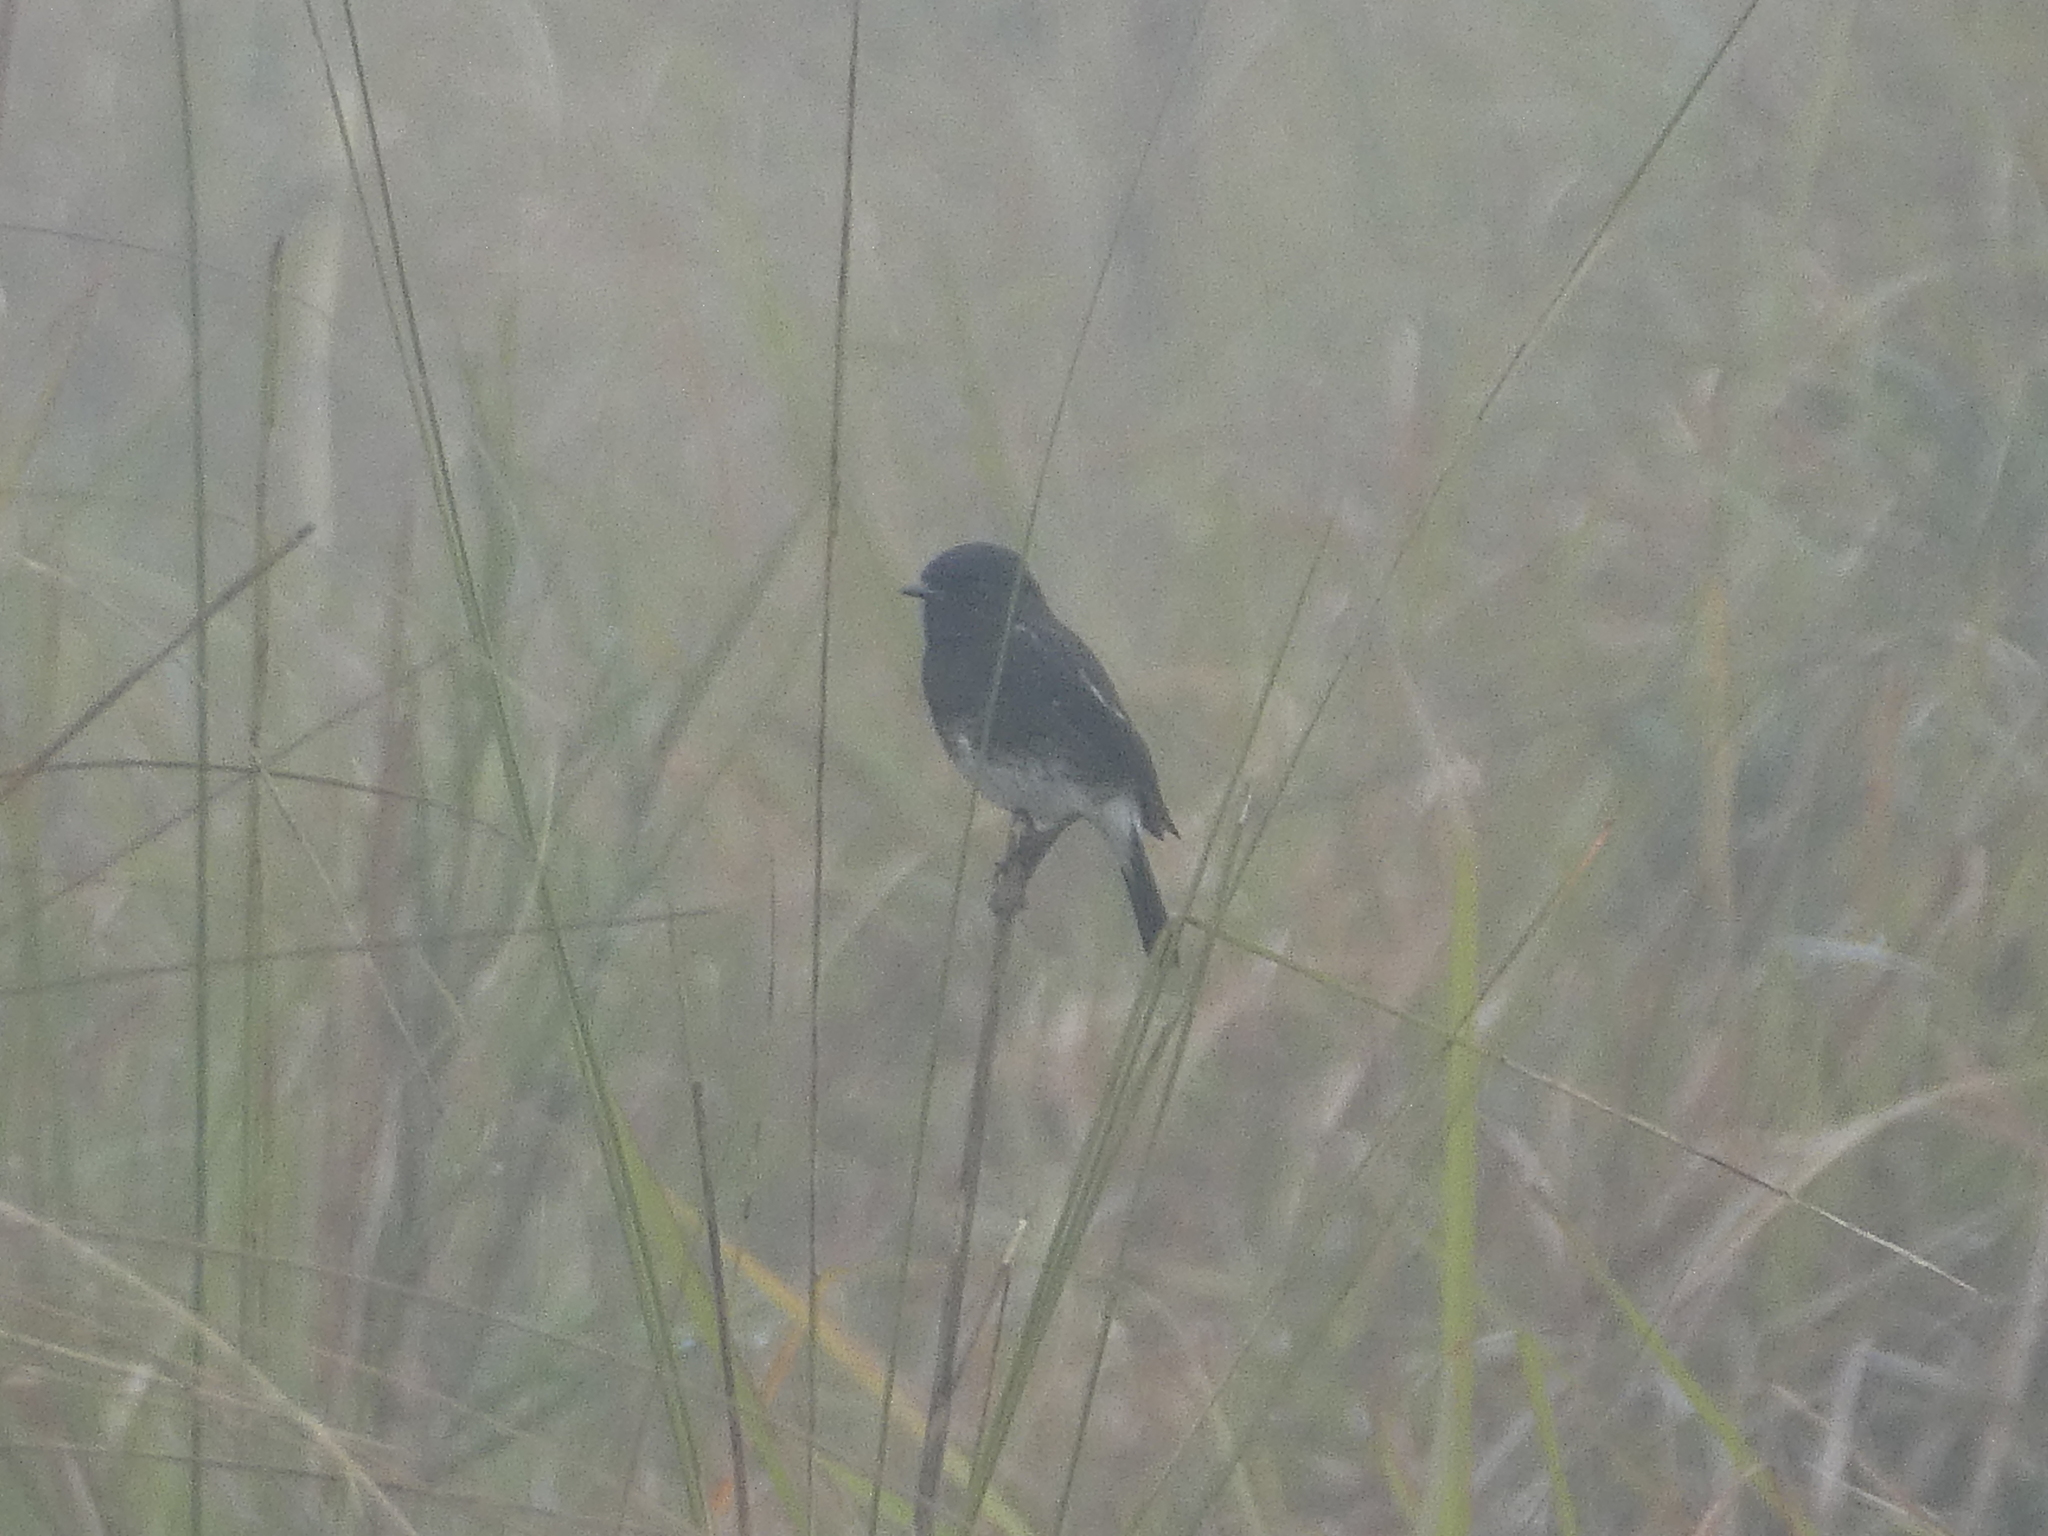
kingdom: Animalia
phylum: Chordata
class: Aves
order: Passeriformes
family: Muscicapidae
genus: Saxicola
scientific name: Saxicola caprata
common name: Pied bush chat
